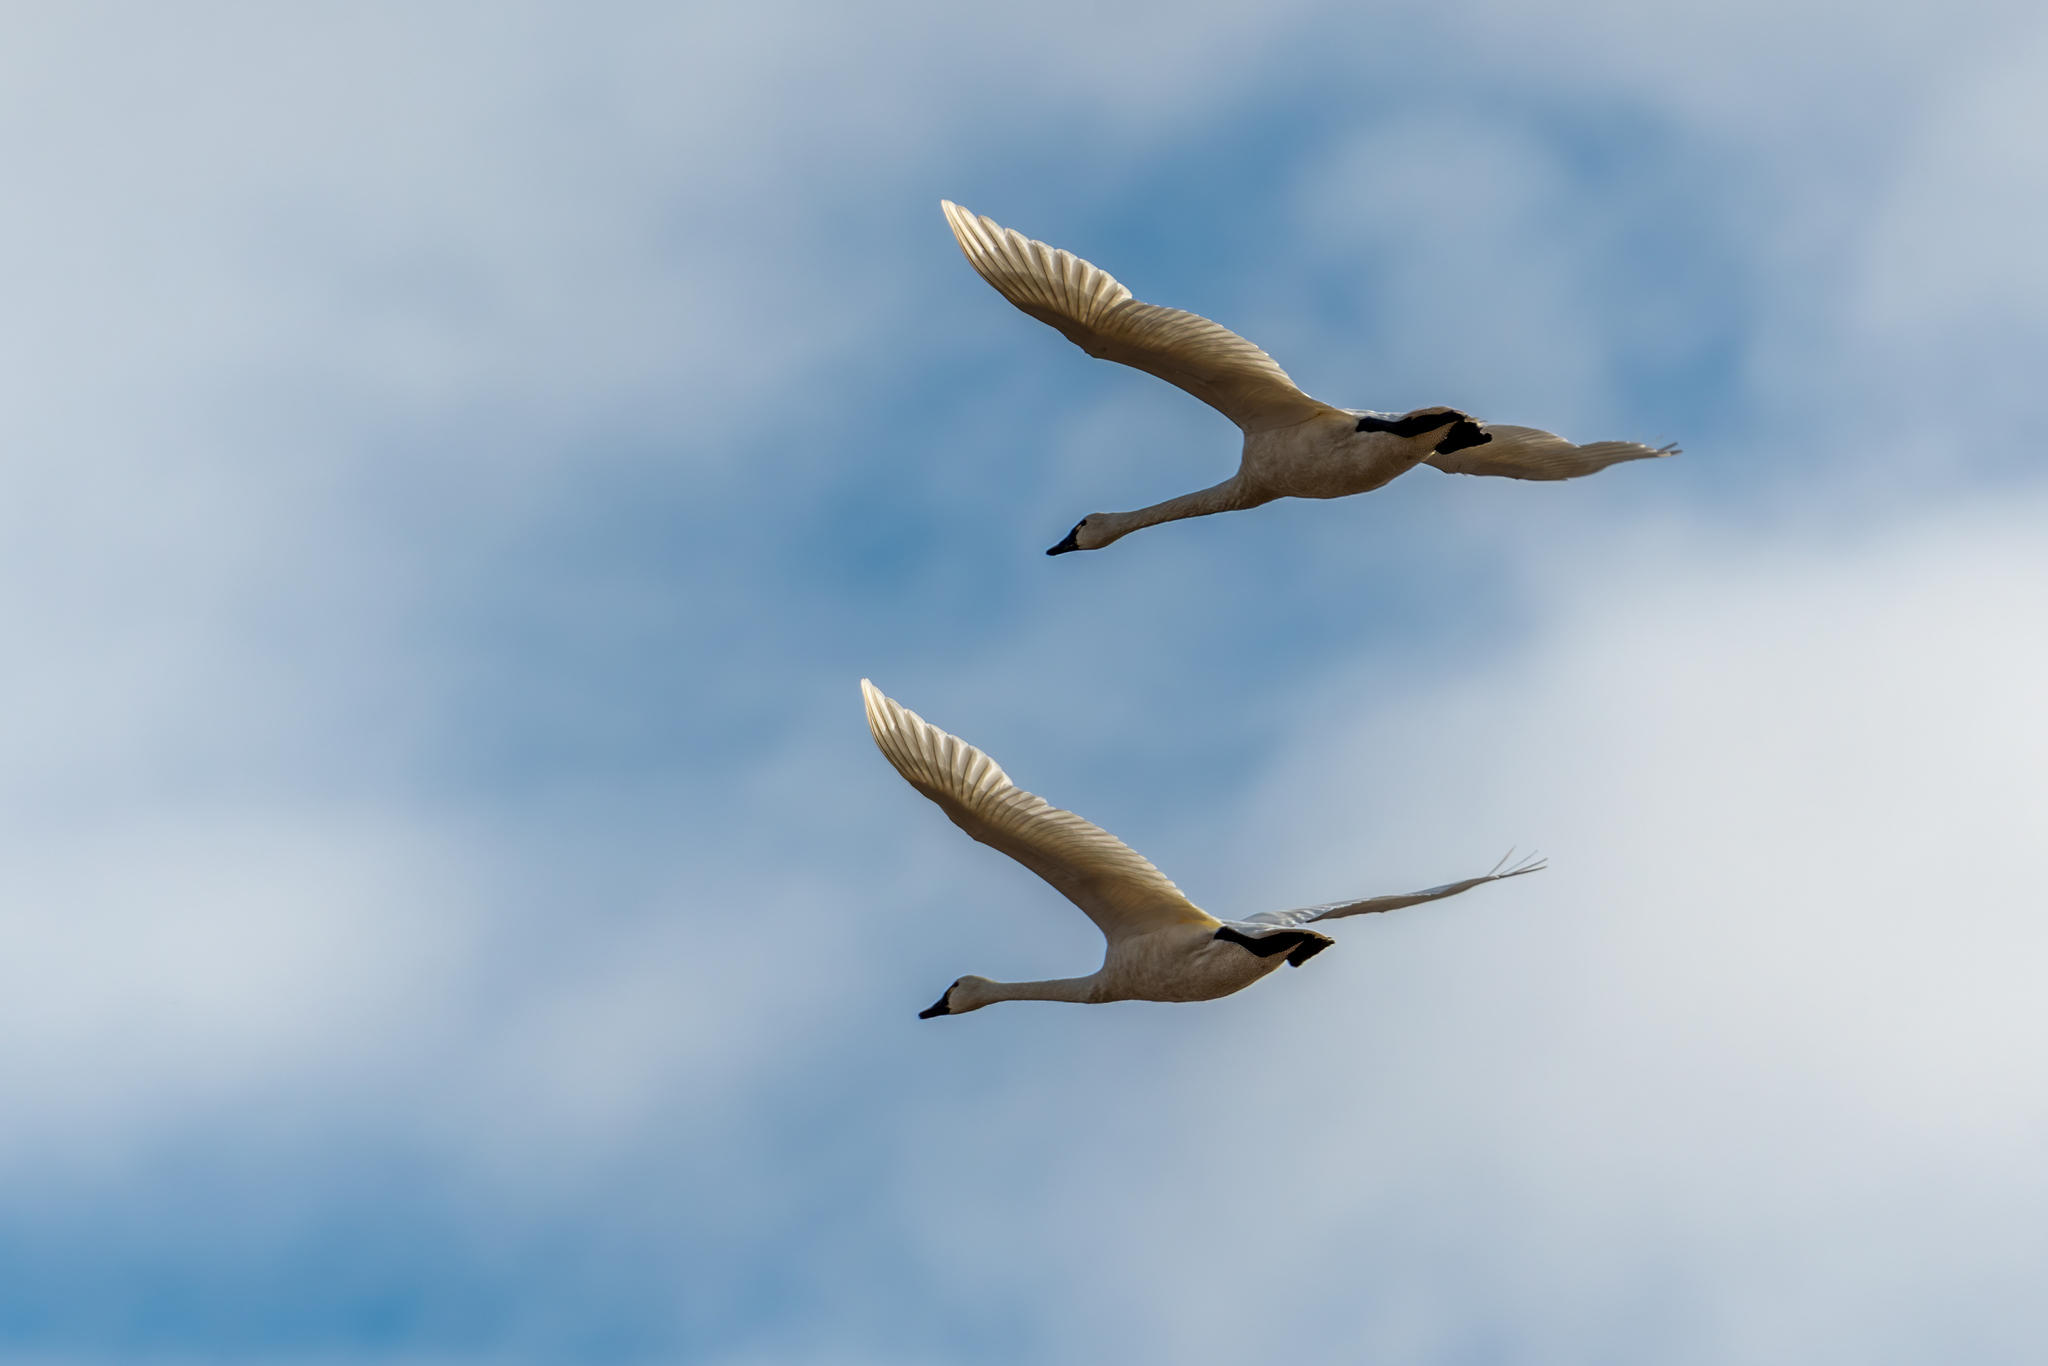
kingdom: Animalia
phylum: Chordata
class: Aves
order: Anseriformes
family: Anatidae
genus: Cygnus
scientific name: Cygnus columbianus
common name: Tundra swan
